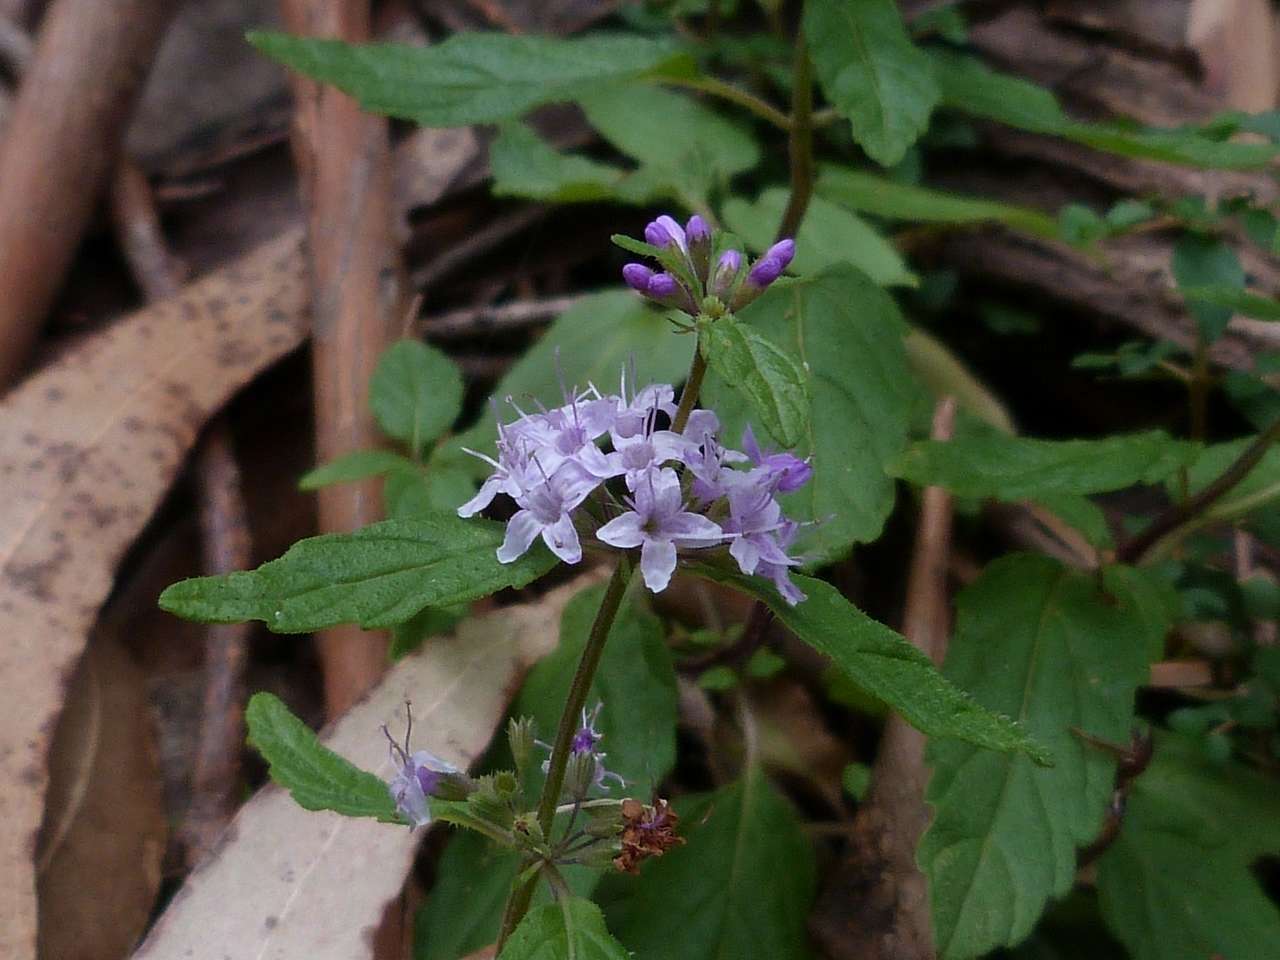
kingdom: Plantae
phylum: Tracheophyta
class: Magnoliopsida
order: Lamiales
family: Lamiaceae
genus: Mentha
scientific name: Mentha laxiflora
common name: Forest mint
